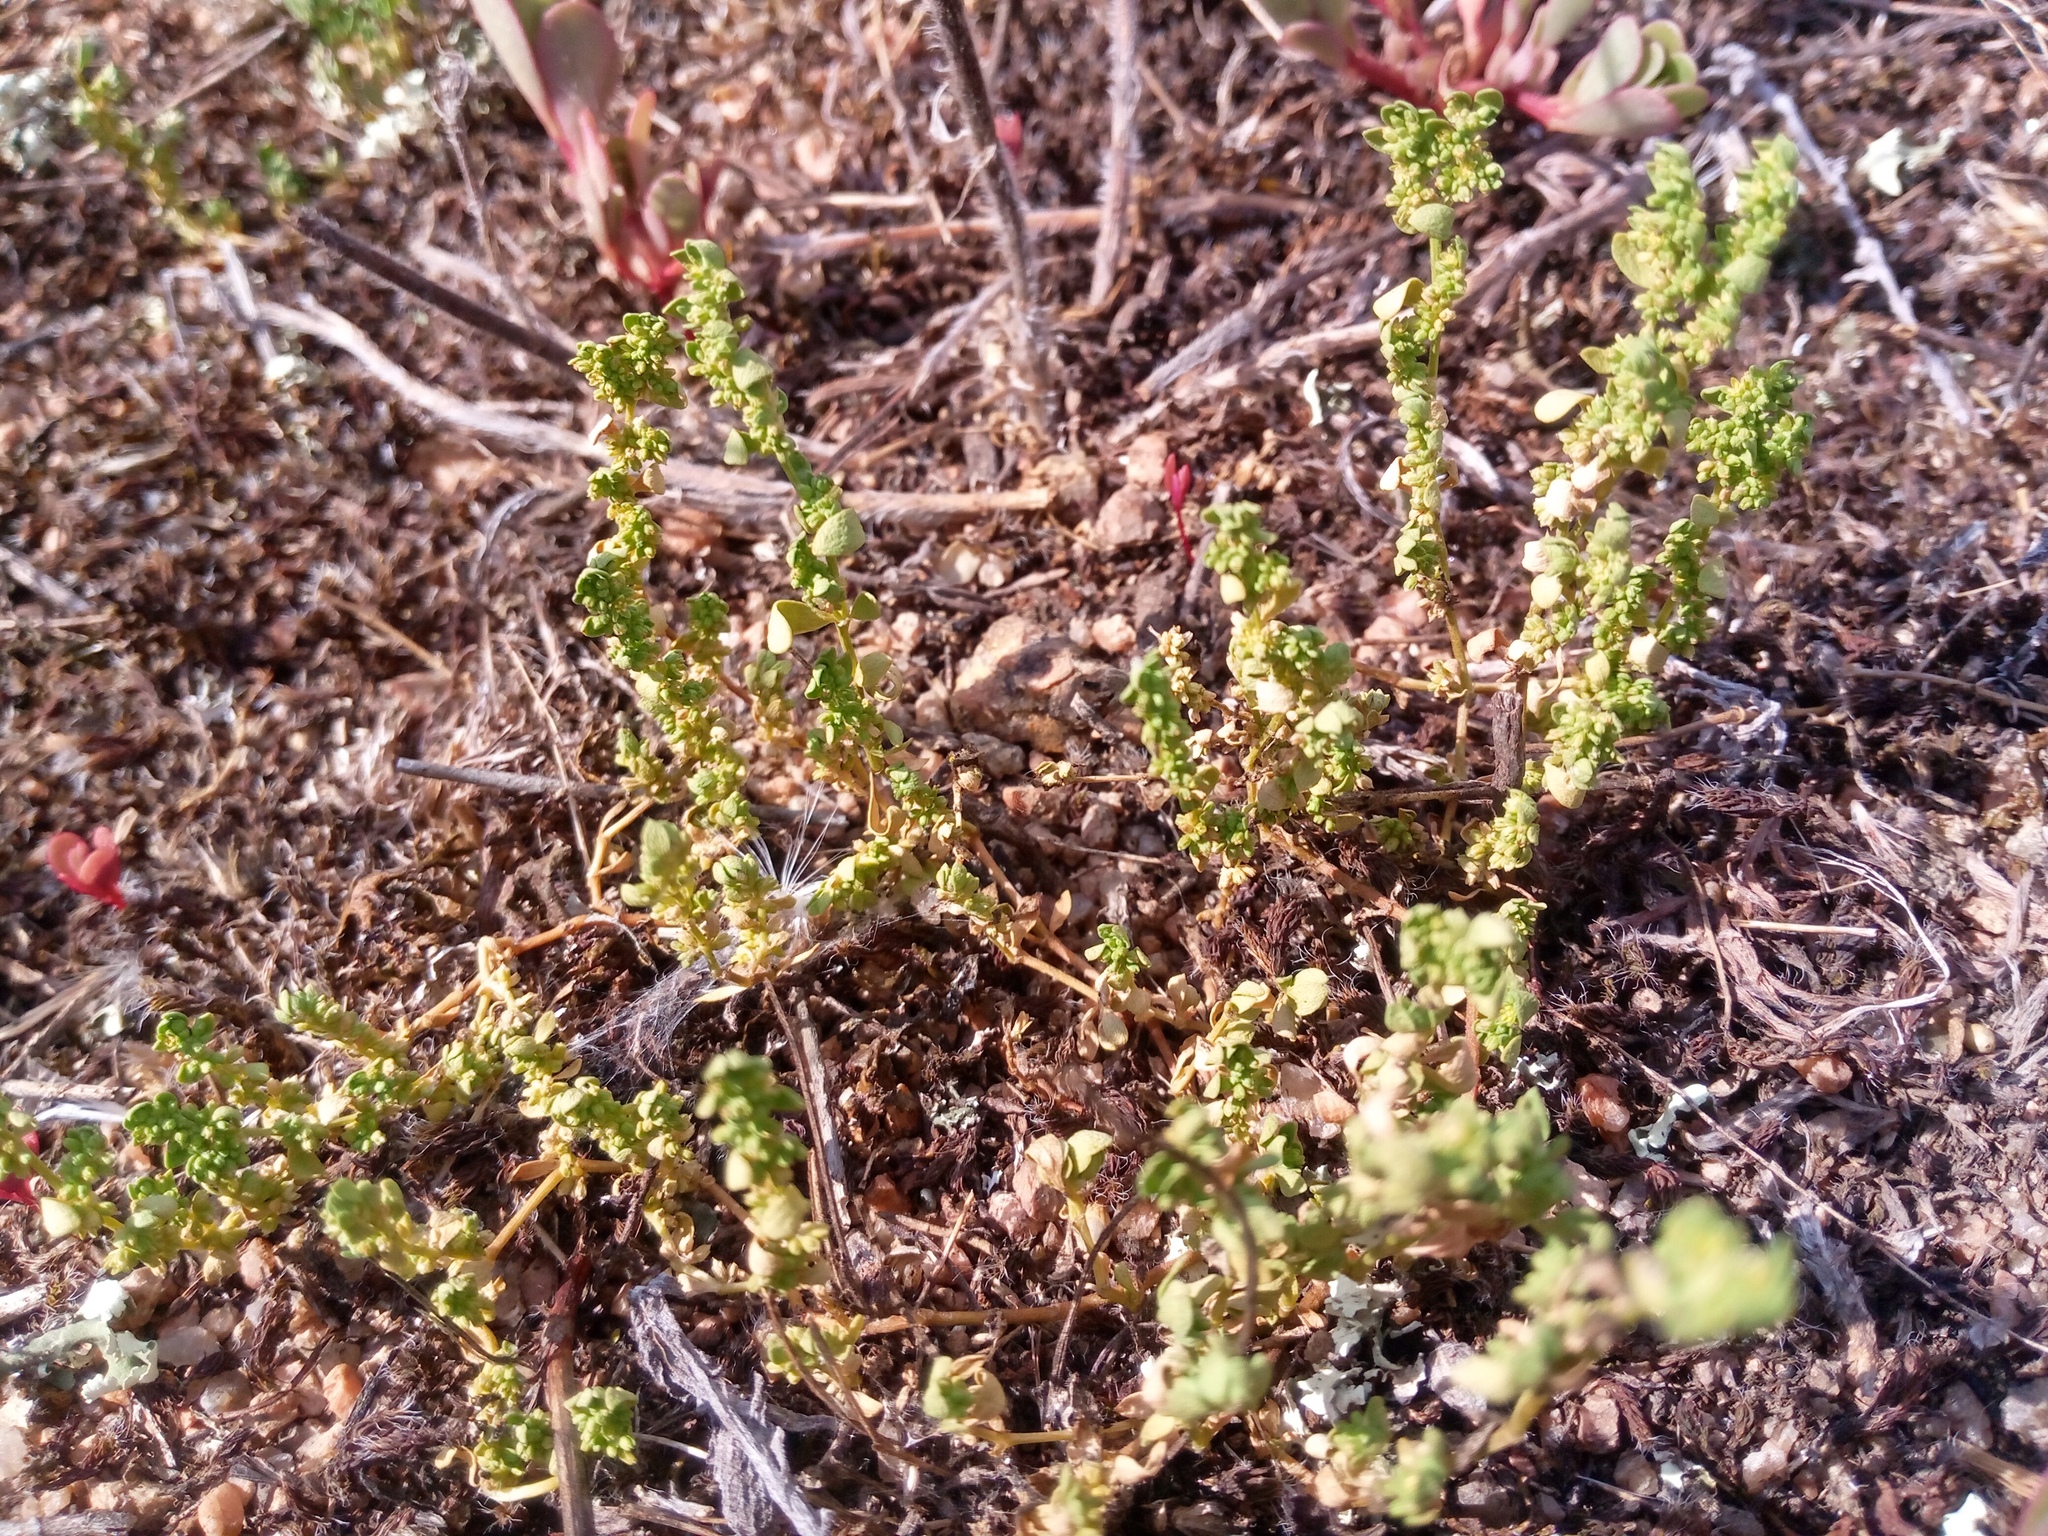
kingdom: Plantae
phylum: Tracheophyta
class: Magnoliopsida
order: Caryophyllales
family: Caryophyllaceae
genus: Herniaria
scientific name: Herniaria glabra
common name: Smooth rupturewort
